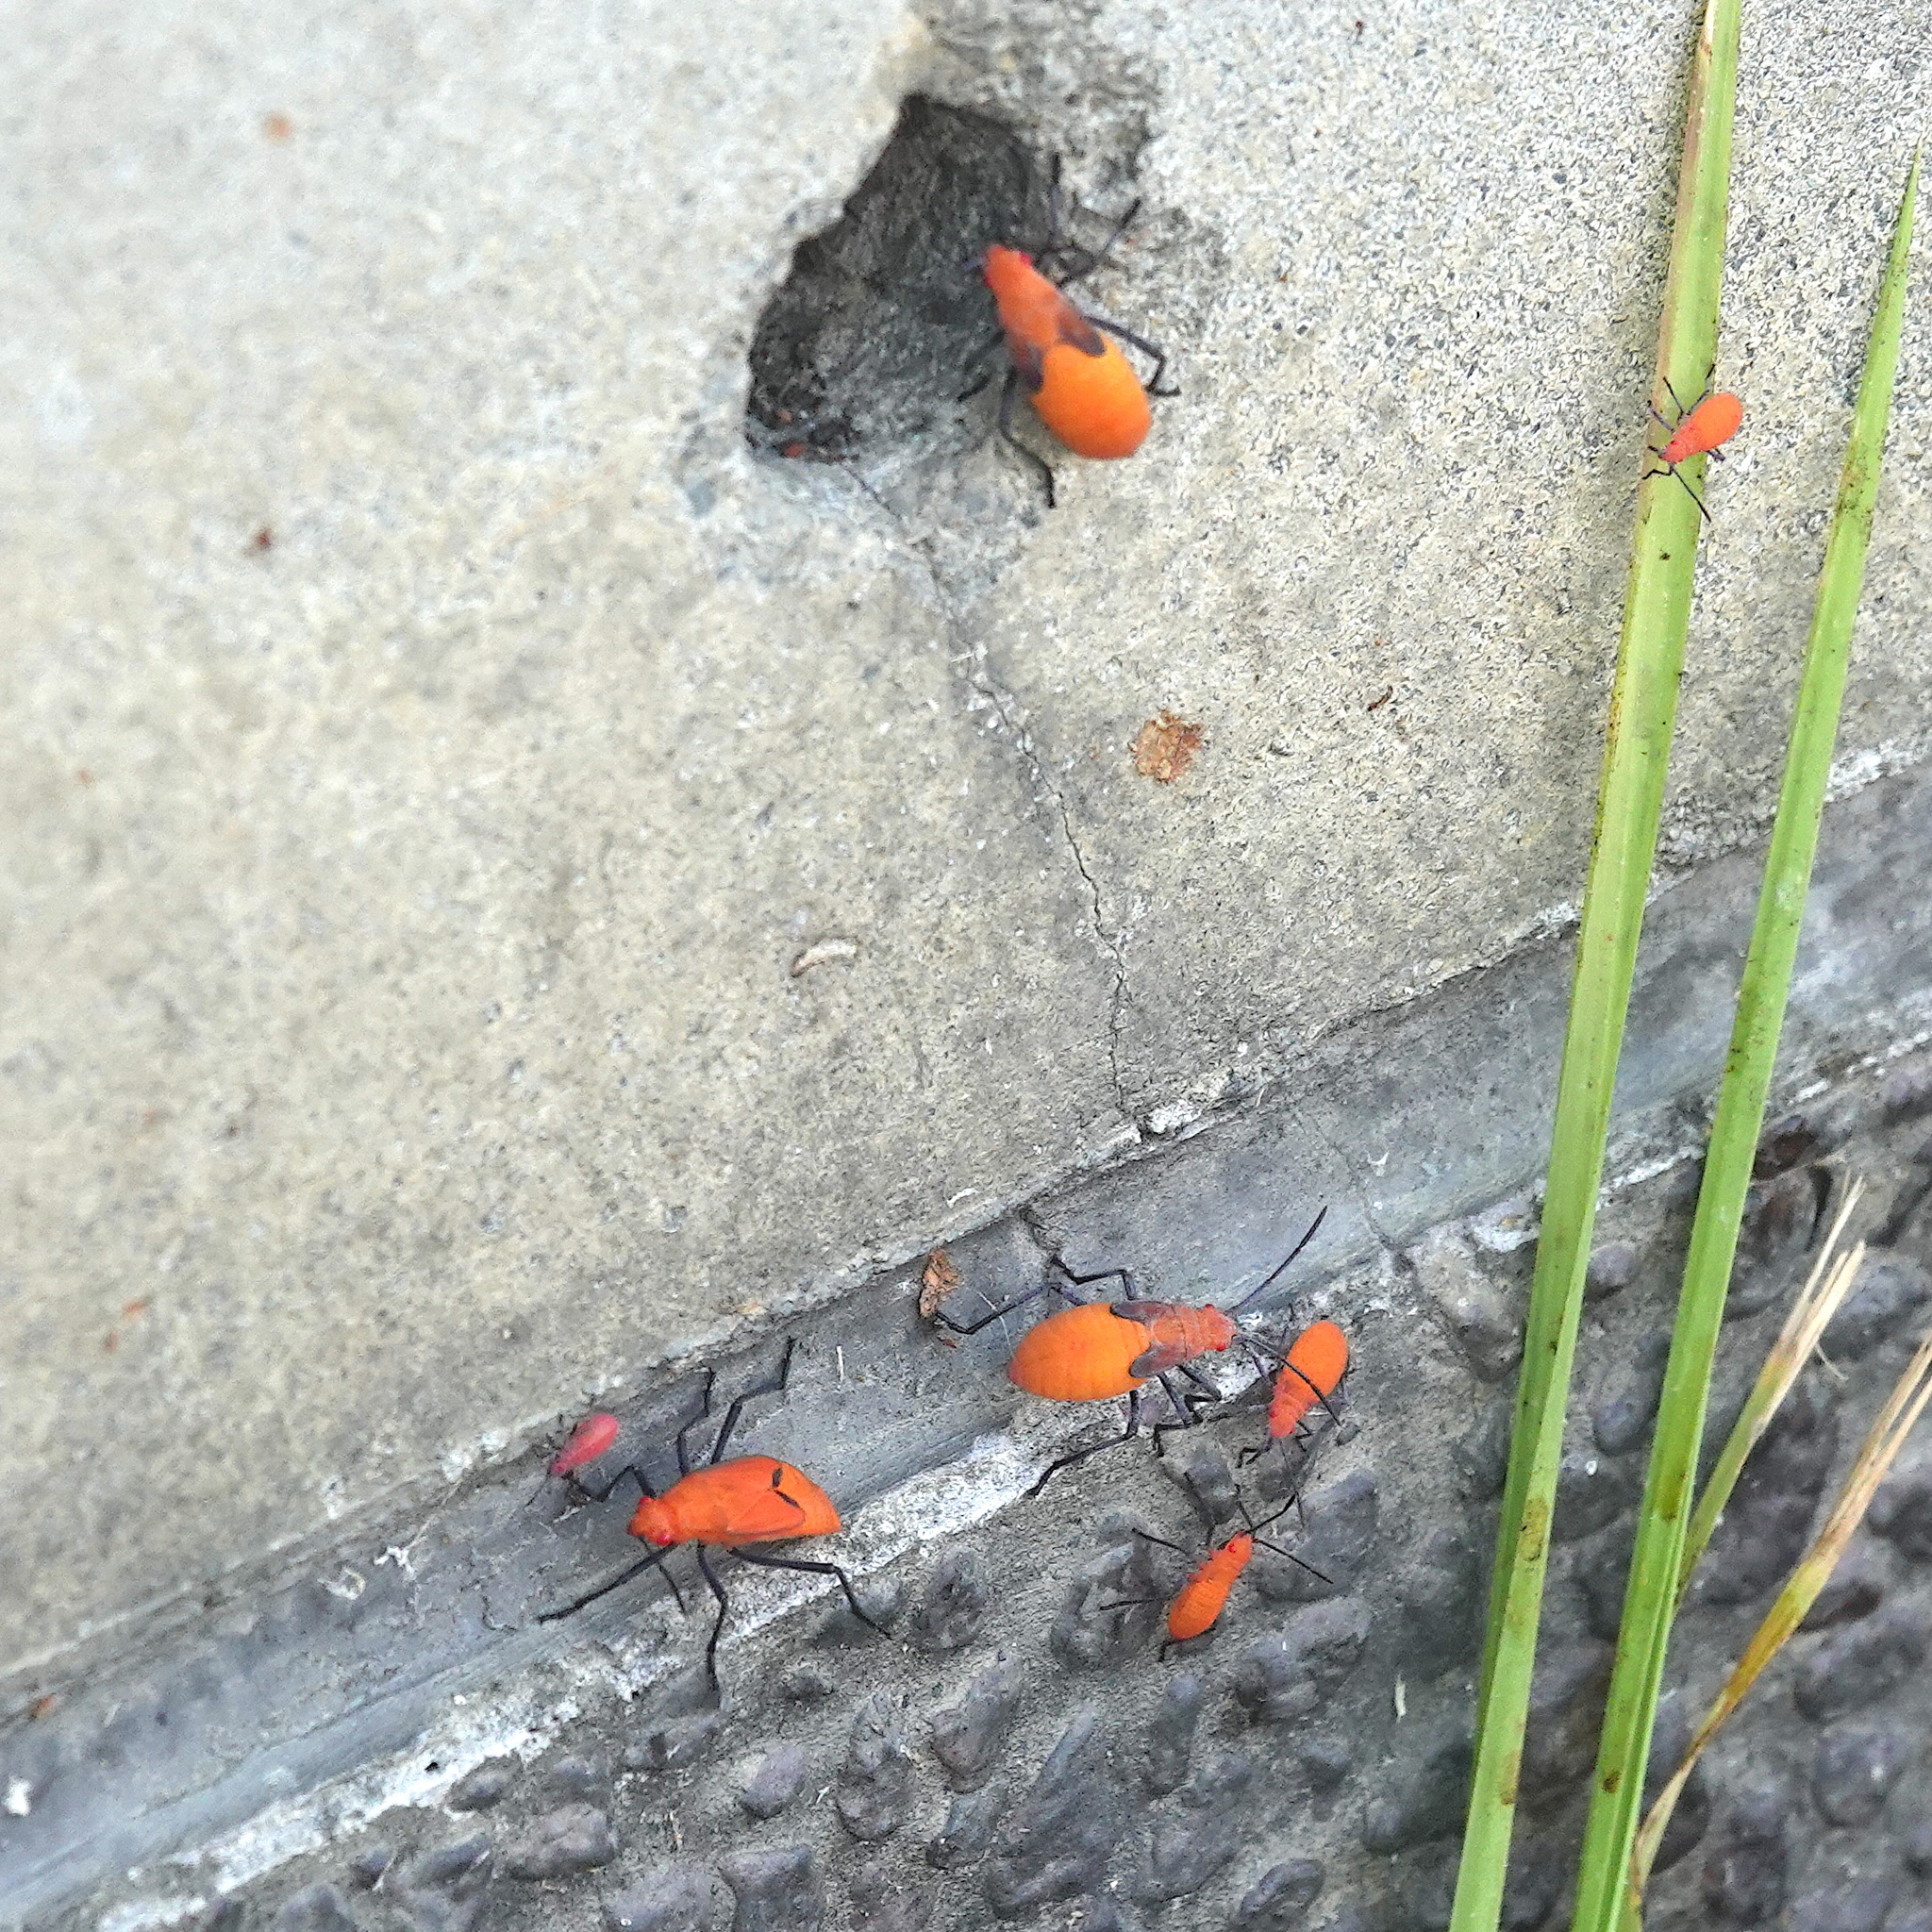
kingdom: Animalia
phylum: Arthropoda
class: Insecta
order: Hemiptera
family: Rhopalidae
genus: Leptocoris
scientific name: Leptocoris augur
